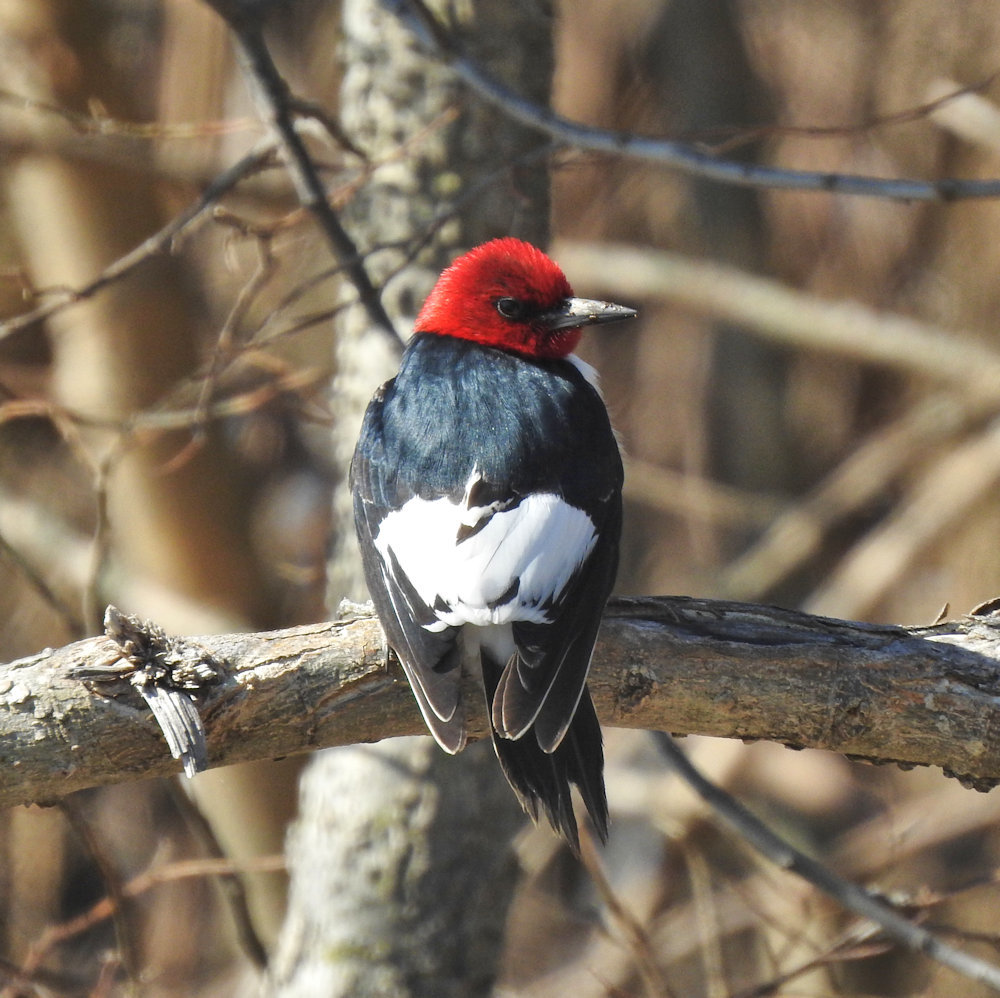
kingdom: Animalia
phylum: Chordata
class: Aves
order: Piciformes
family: Picidae
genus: Melanerpes
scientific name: Melanerpes erythrocephalus
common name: Red-headed woodpecker
